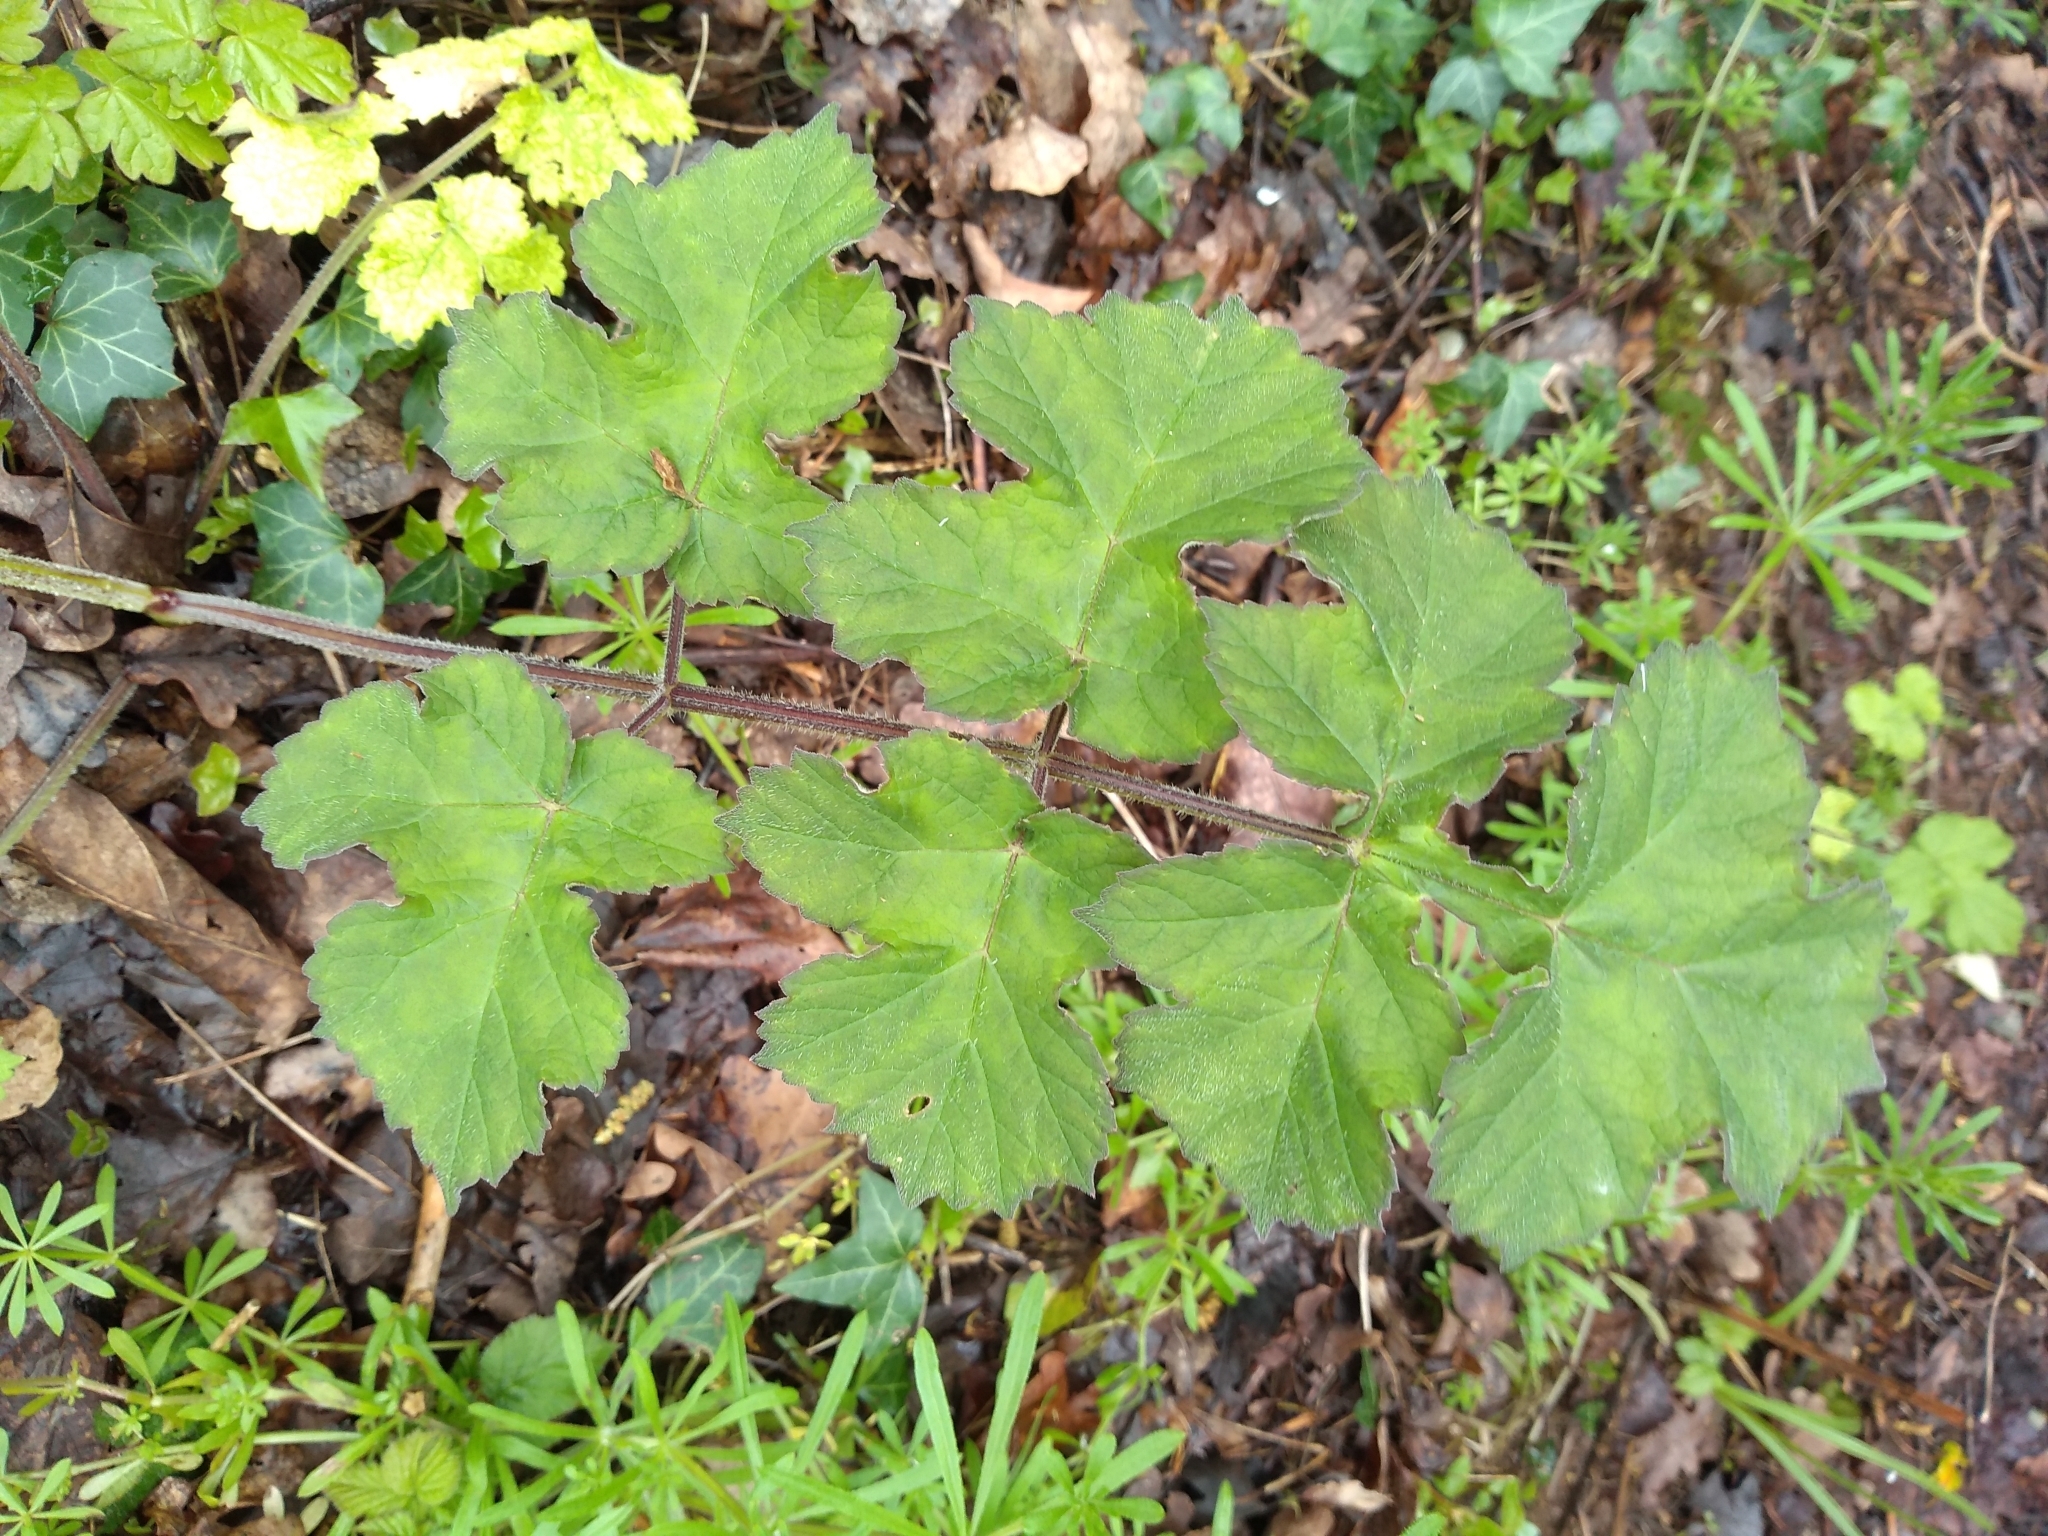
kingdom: Plantae
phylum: Tracheophyta
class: Magnoliopsida
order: Apiales
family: Apiaceae
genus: Heracleum
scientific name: Heracleum sphondylium
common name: Hogweed
